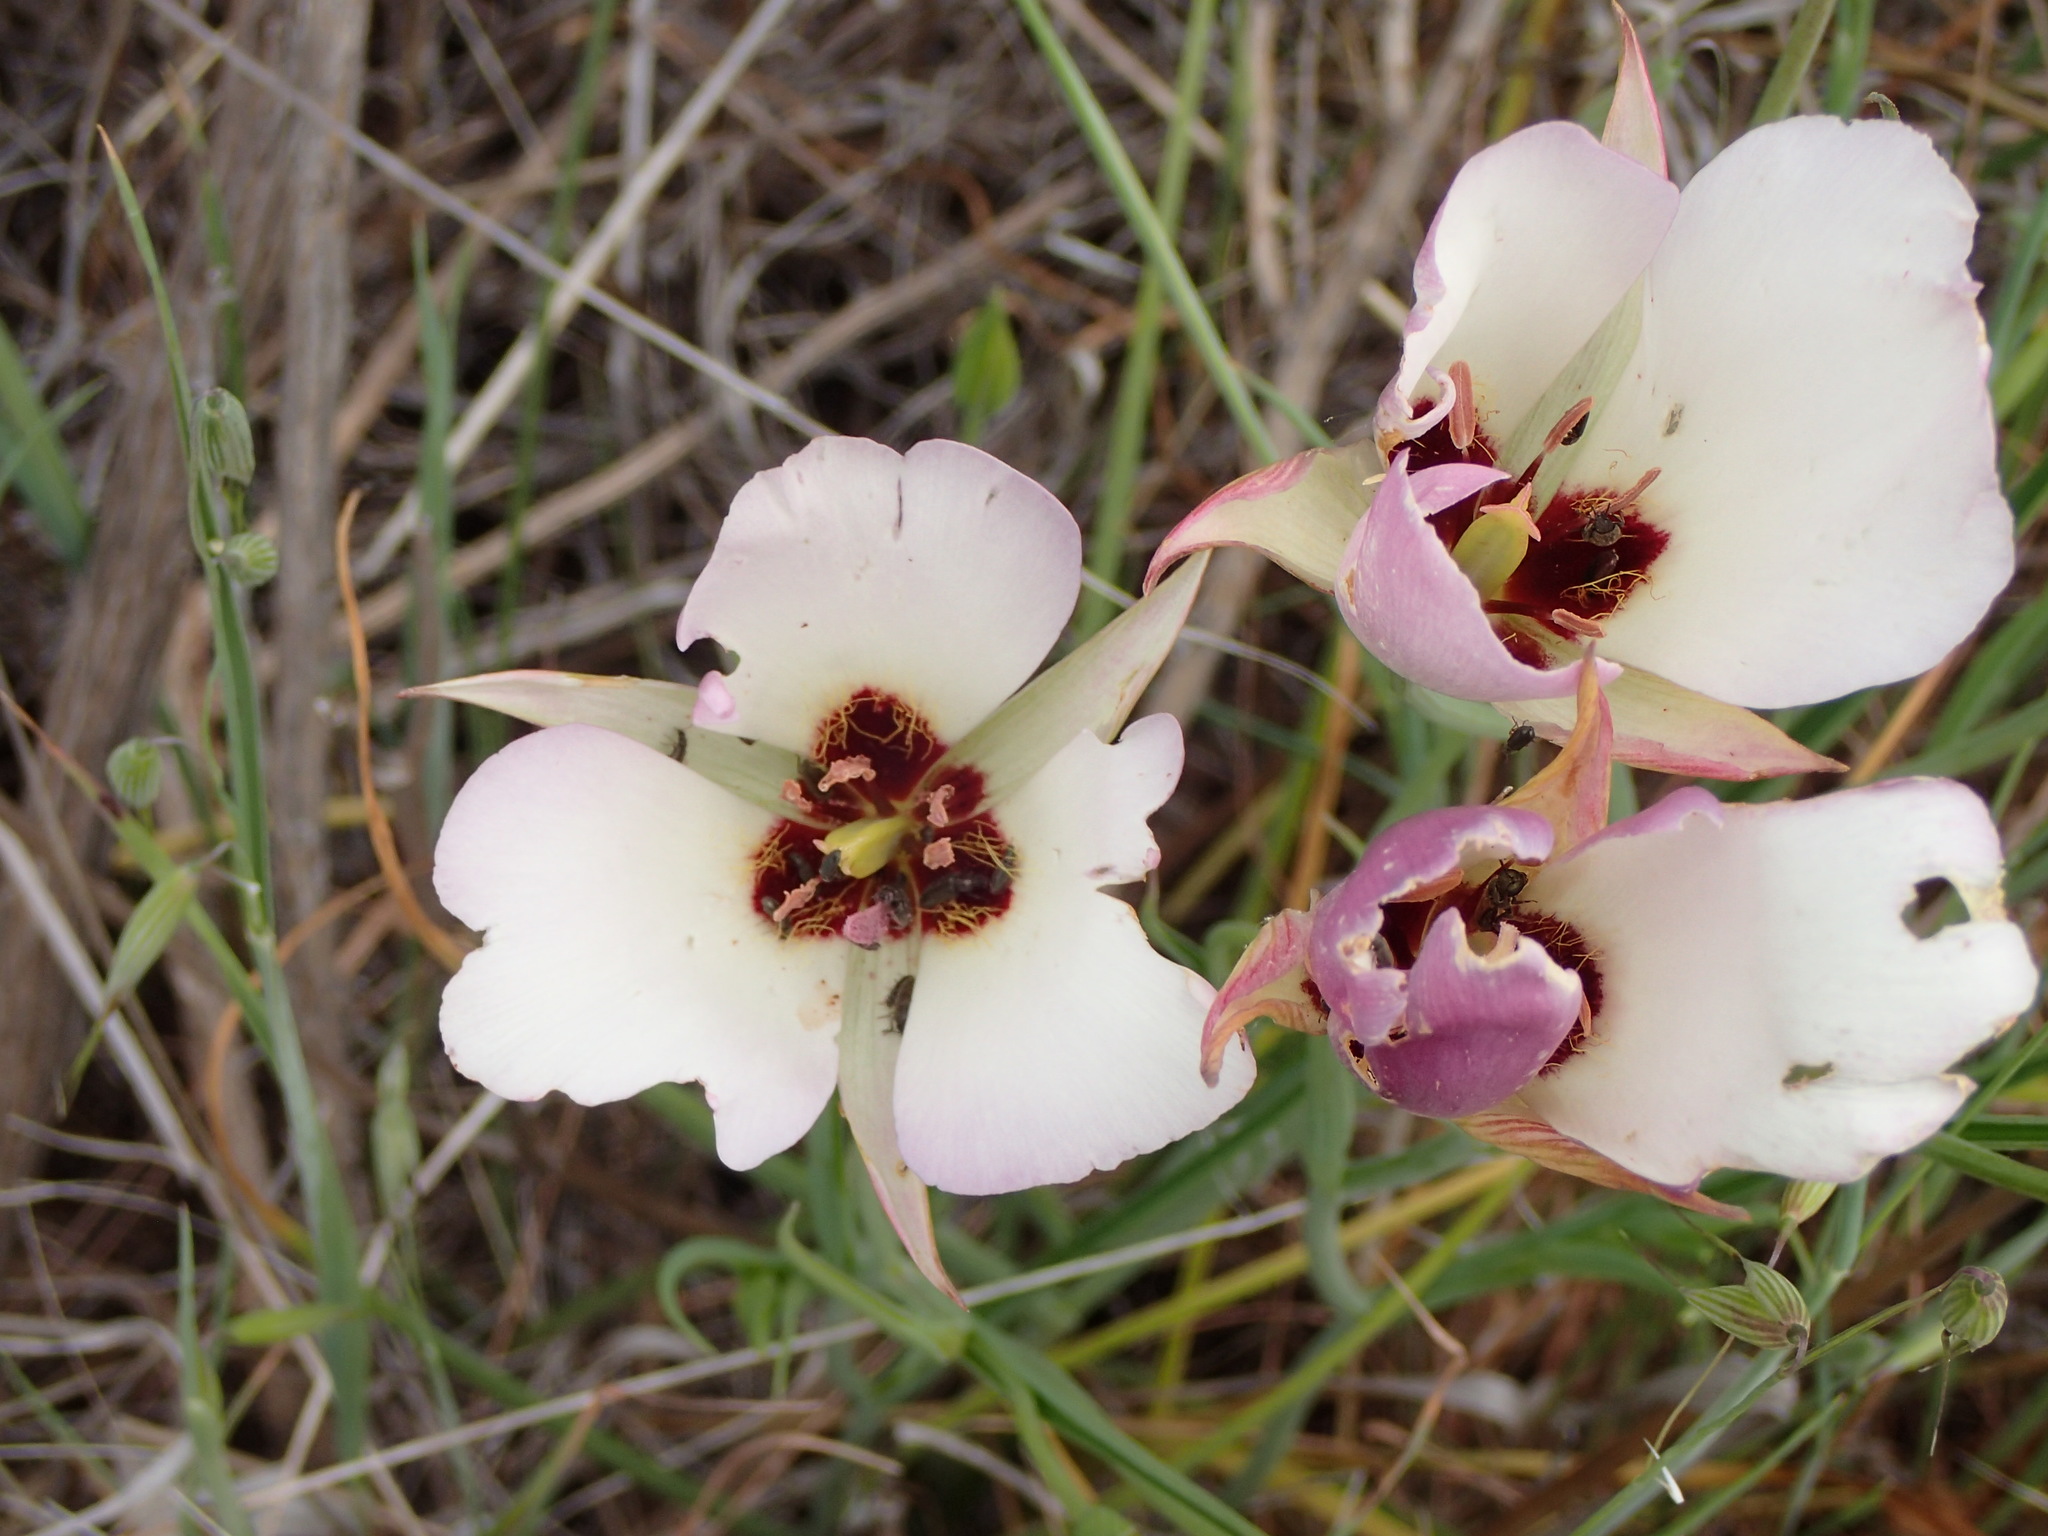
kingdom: Plantae
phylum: Tracheophyta
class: Liliopsida
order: Liliales
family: Liliaceae
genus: Calochortus
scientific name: Calochortus catalinae
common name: Catalina mariposa-lily
